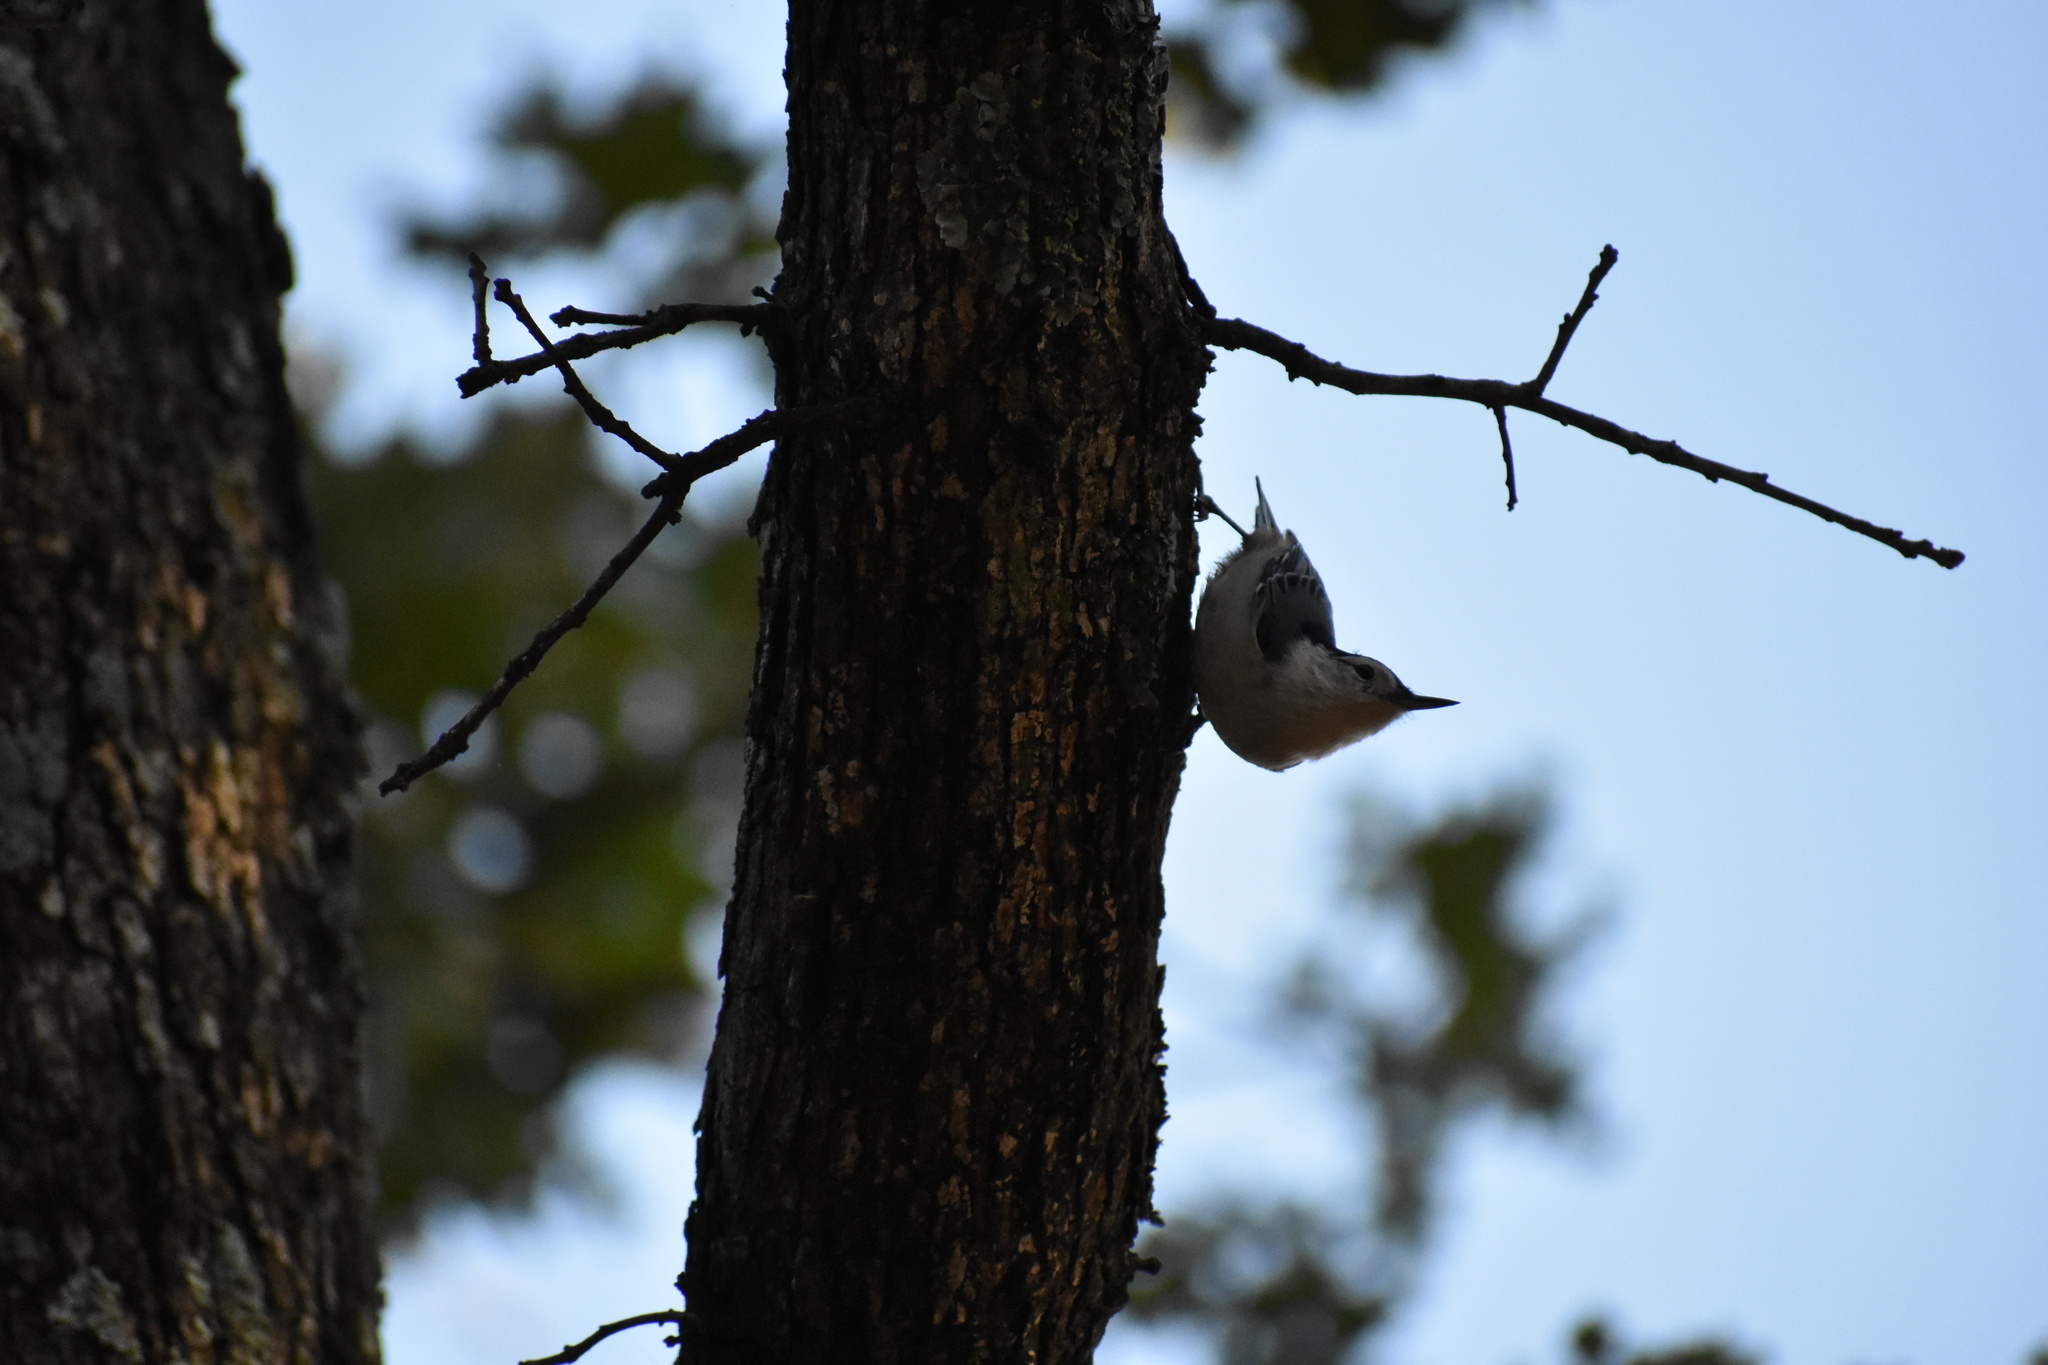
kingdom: Animalia
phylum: Chordata
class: Aves
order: Passeriformes
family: Sittidae
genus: Sitta
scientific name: Sitta carolinensis
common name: White-breasted nuthatch
